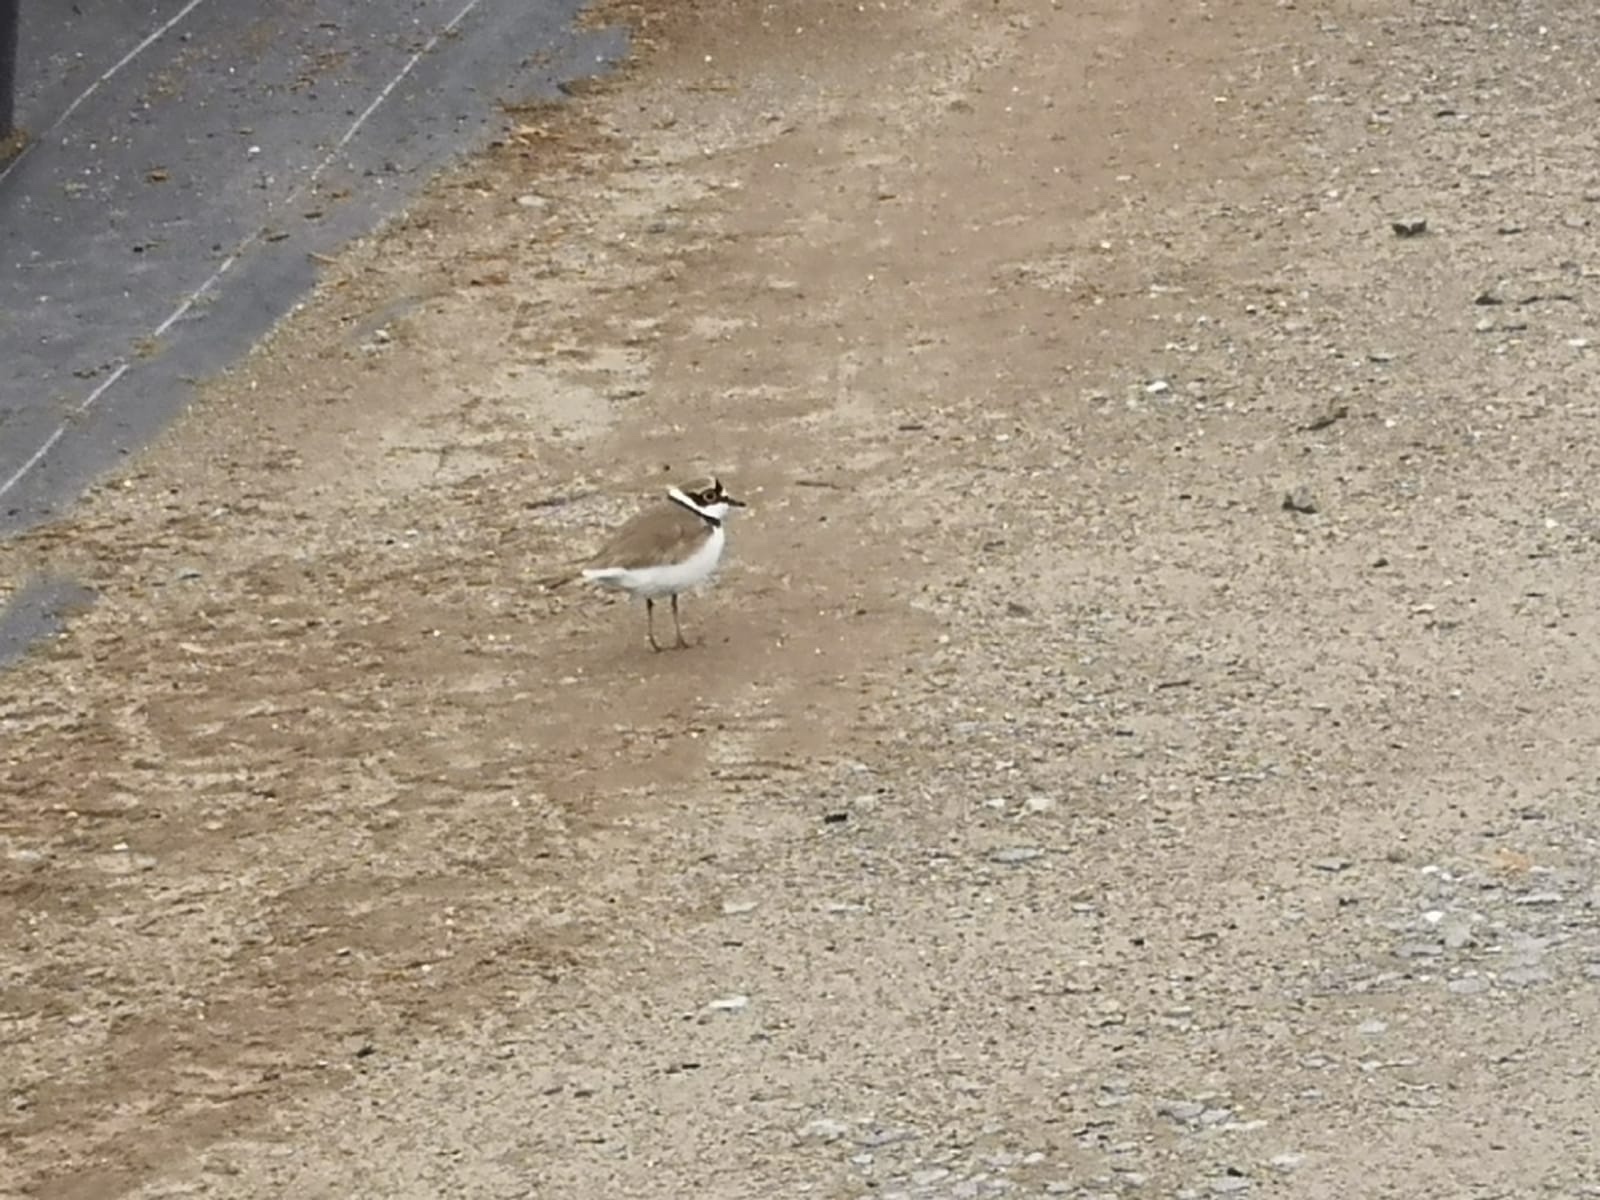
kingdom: Animalia
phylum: Chordata
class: Aves
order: Charadriiformes
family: Charadriidae
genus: Charadrius
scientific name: Charadrius dubius
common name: Little ringed plover
